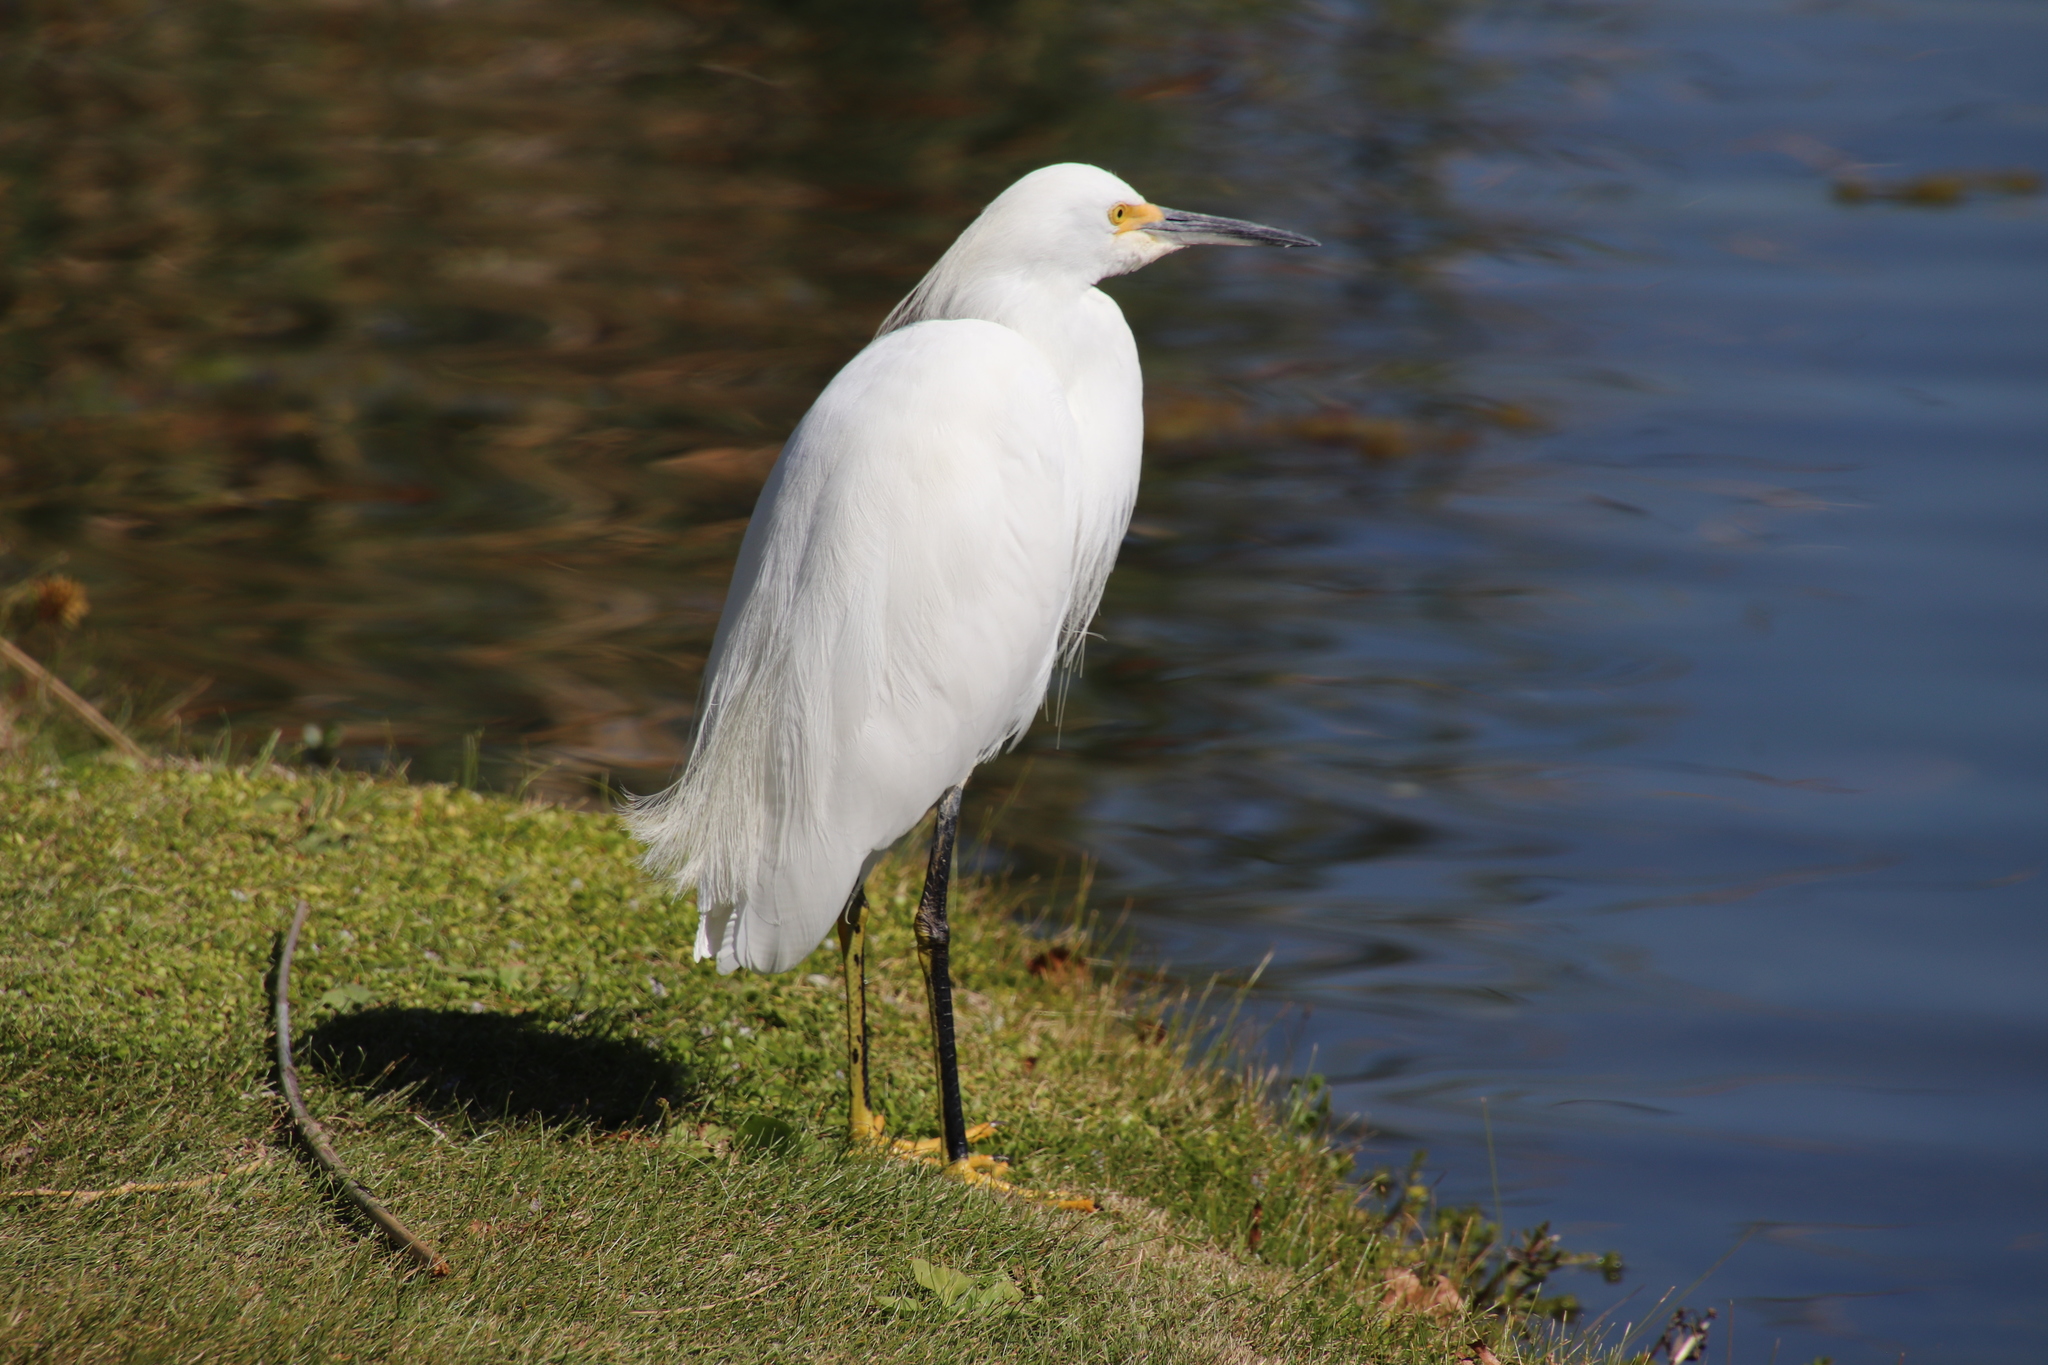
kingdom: Animalia
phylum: Chordata
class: Aves
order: Pelecaniformes
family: Ardeidae
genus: Egretta
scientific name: Egretta thula
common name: Snowy egret
